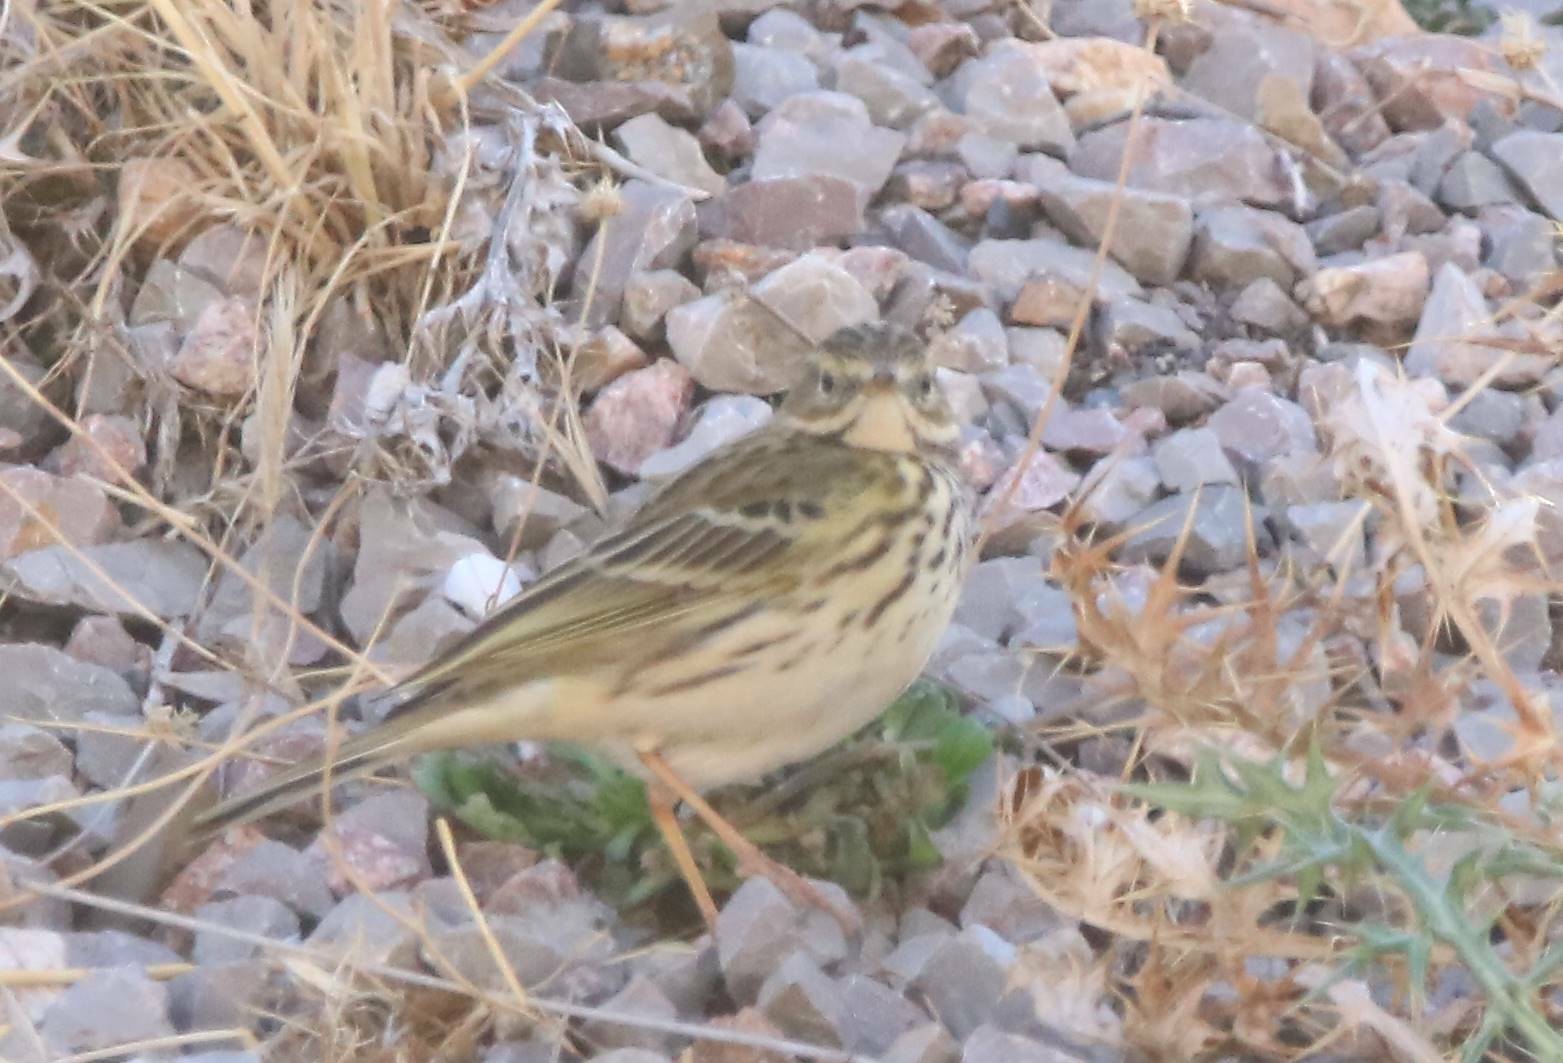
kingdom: Animalia
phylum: Chordata
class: Aves
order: Passeriformes
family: Motacillidae
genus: Anthus
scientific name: Anthus pratensis
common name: Meadow pipit
